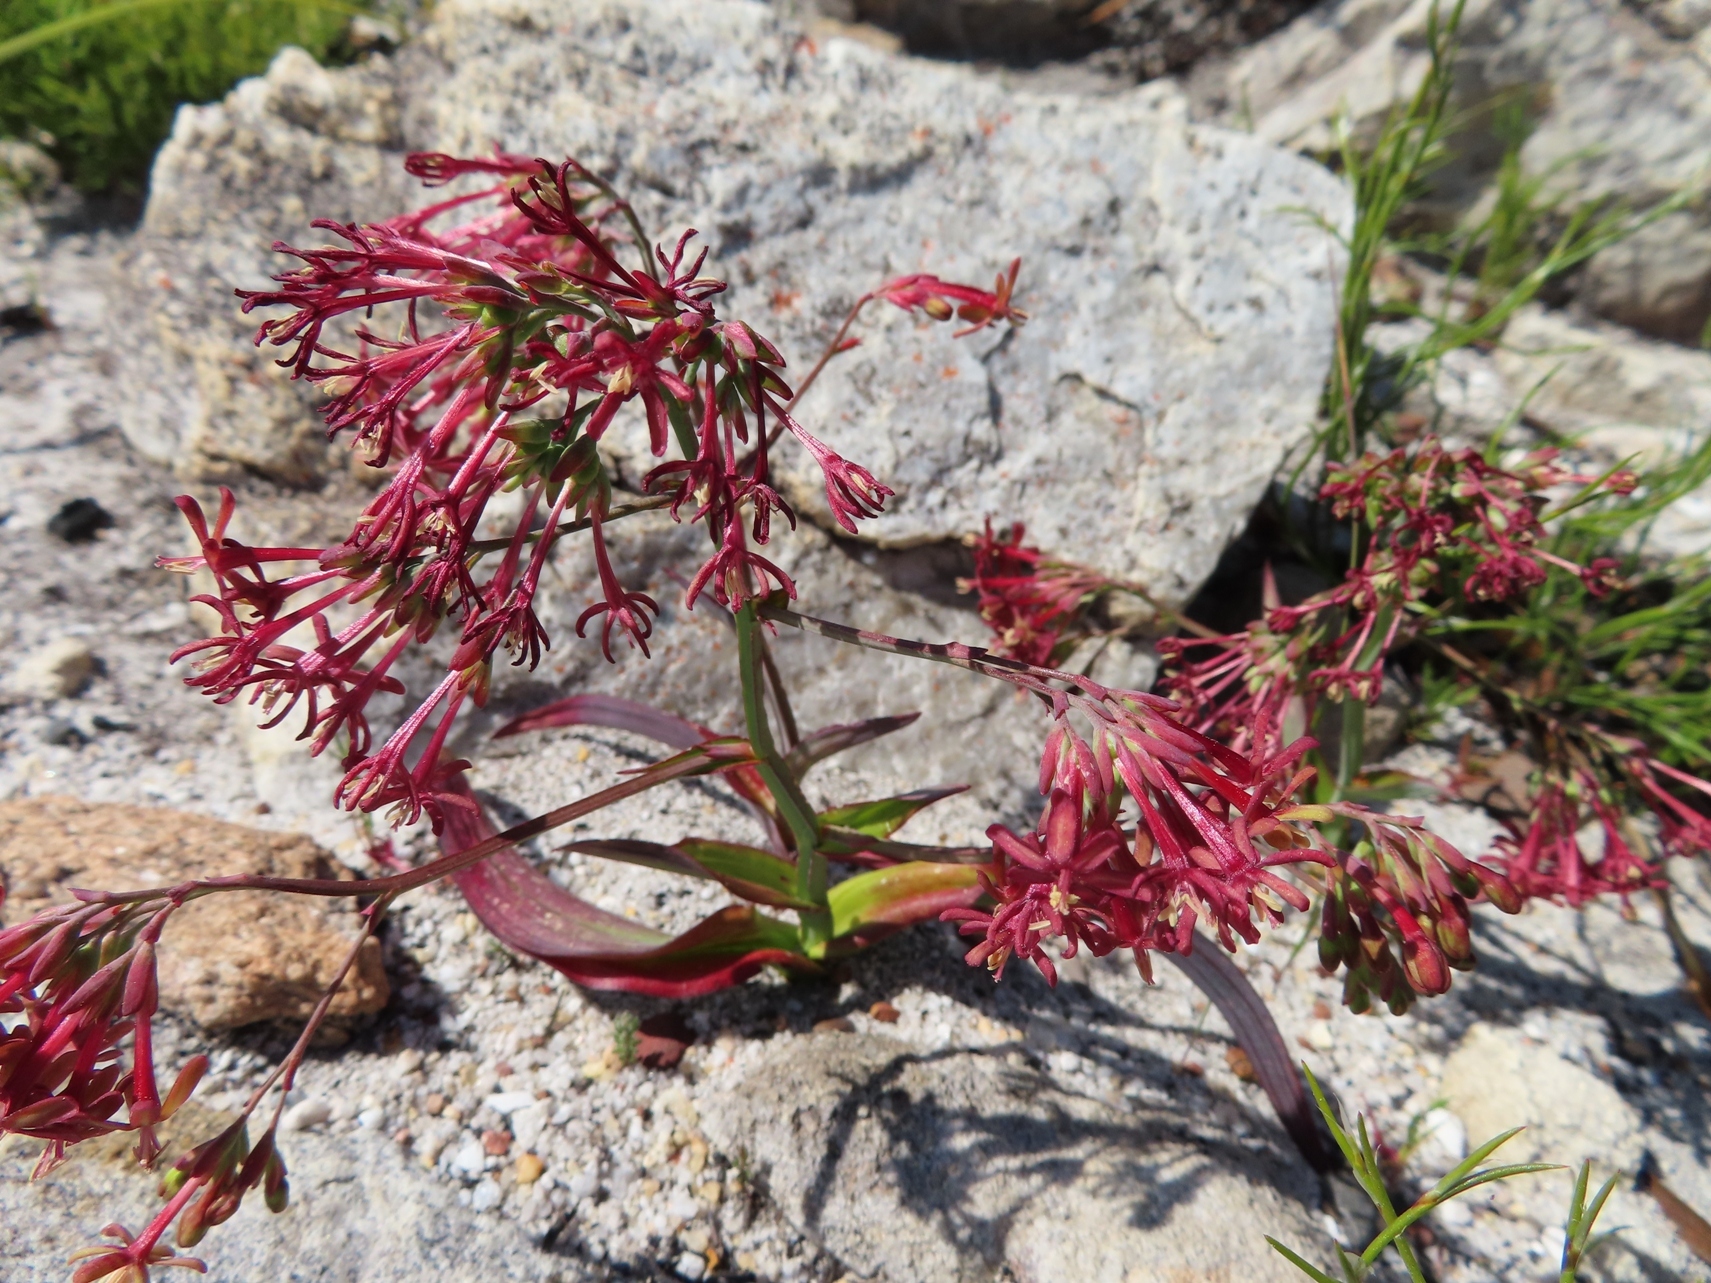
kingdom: Plantae
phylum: Tracheophyta
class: Liliopsida
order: Asparagales
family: Iridaceae
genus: Codonorhiza
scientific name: Codonorhiza micrantha
